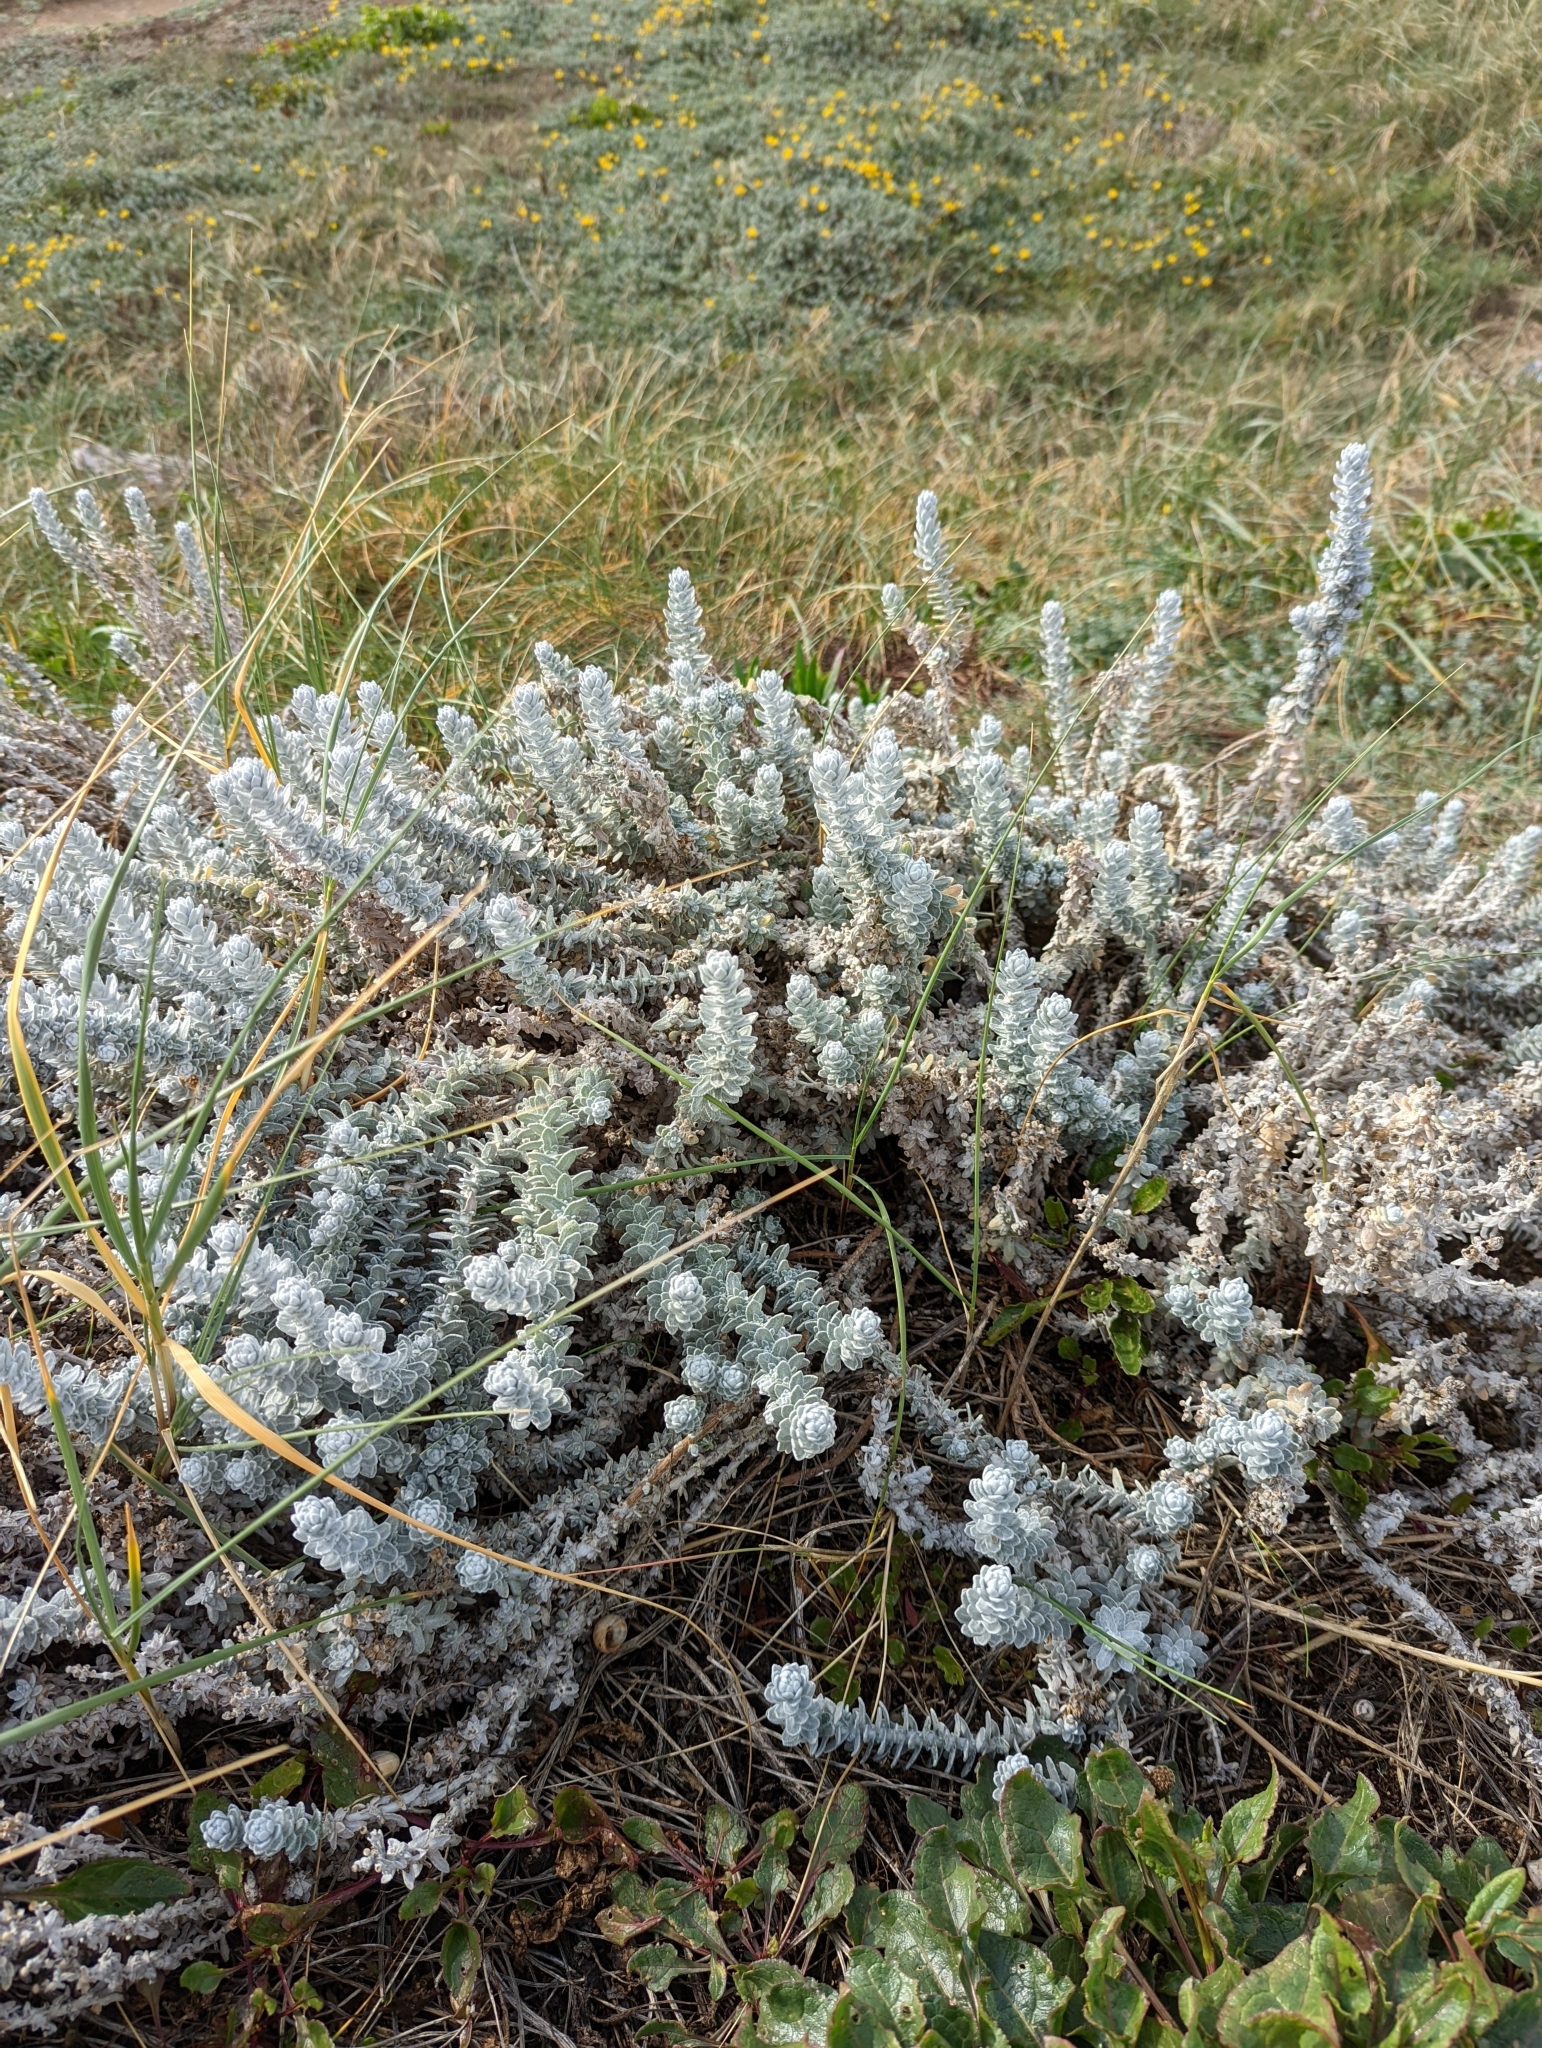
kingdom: Plantae
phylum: Tracheophyta
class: Magnoliopsida
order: Asterales
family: Asteraceae
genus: Achillea
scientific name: Achillea maritima
